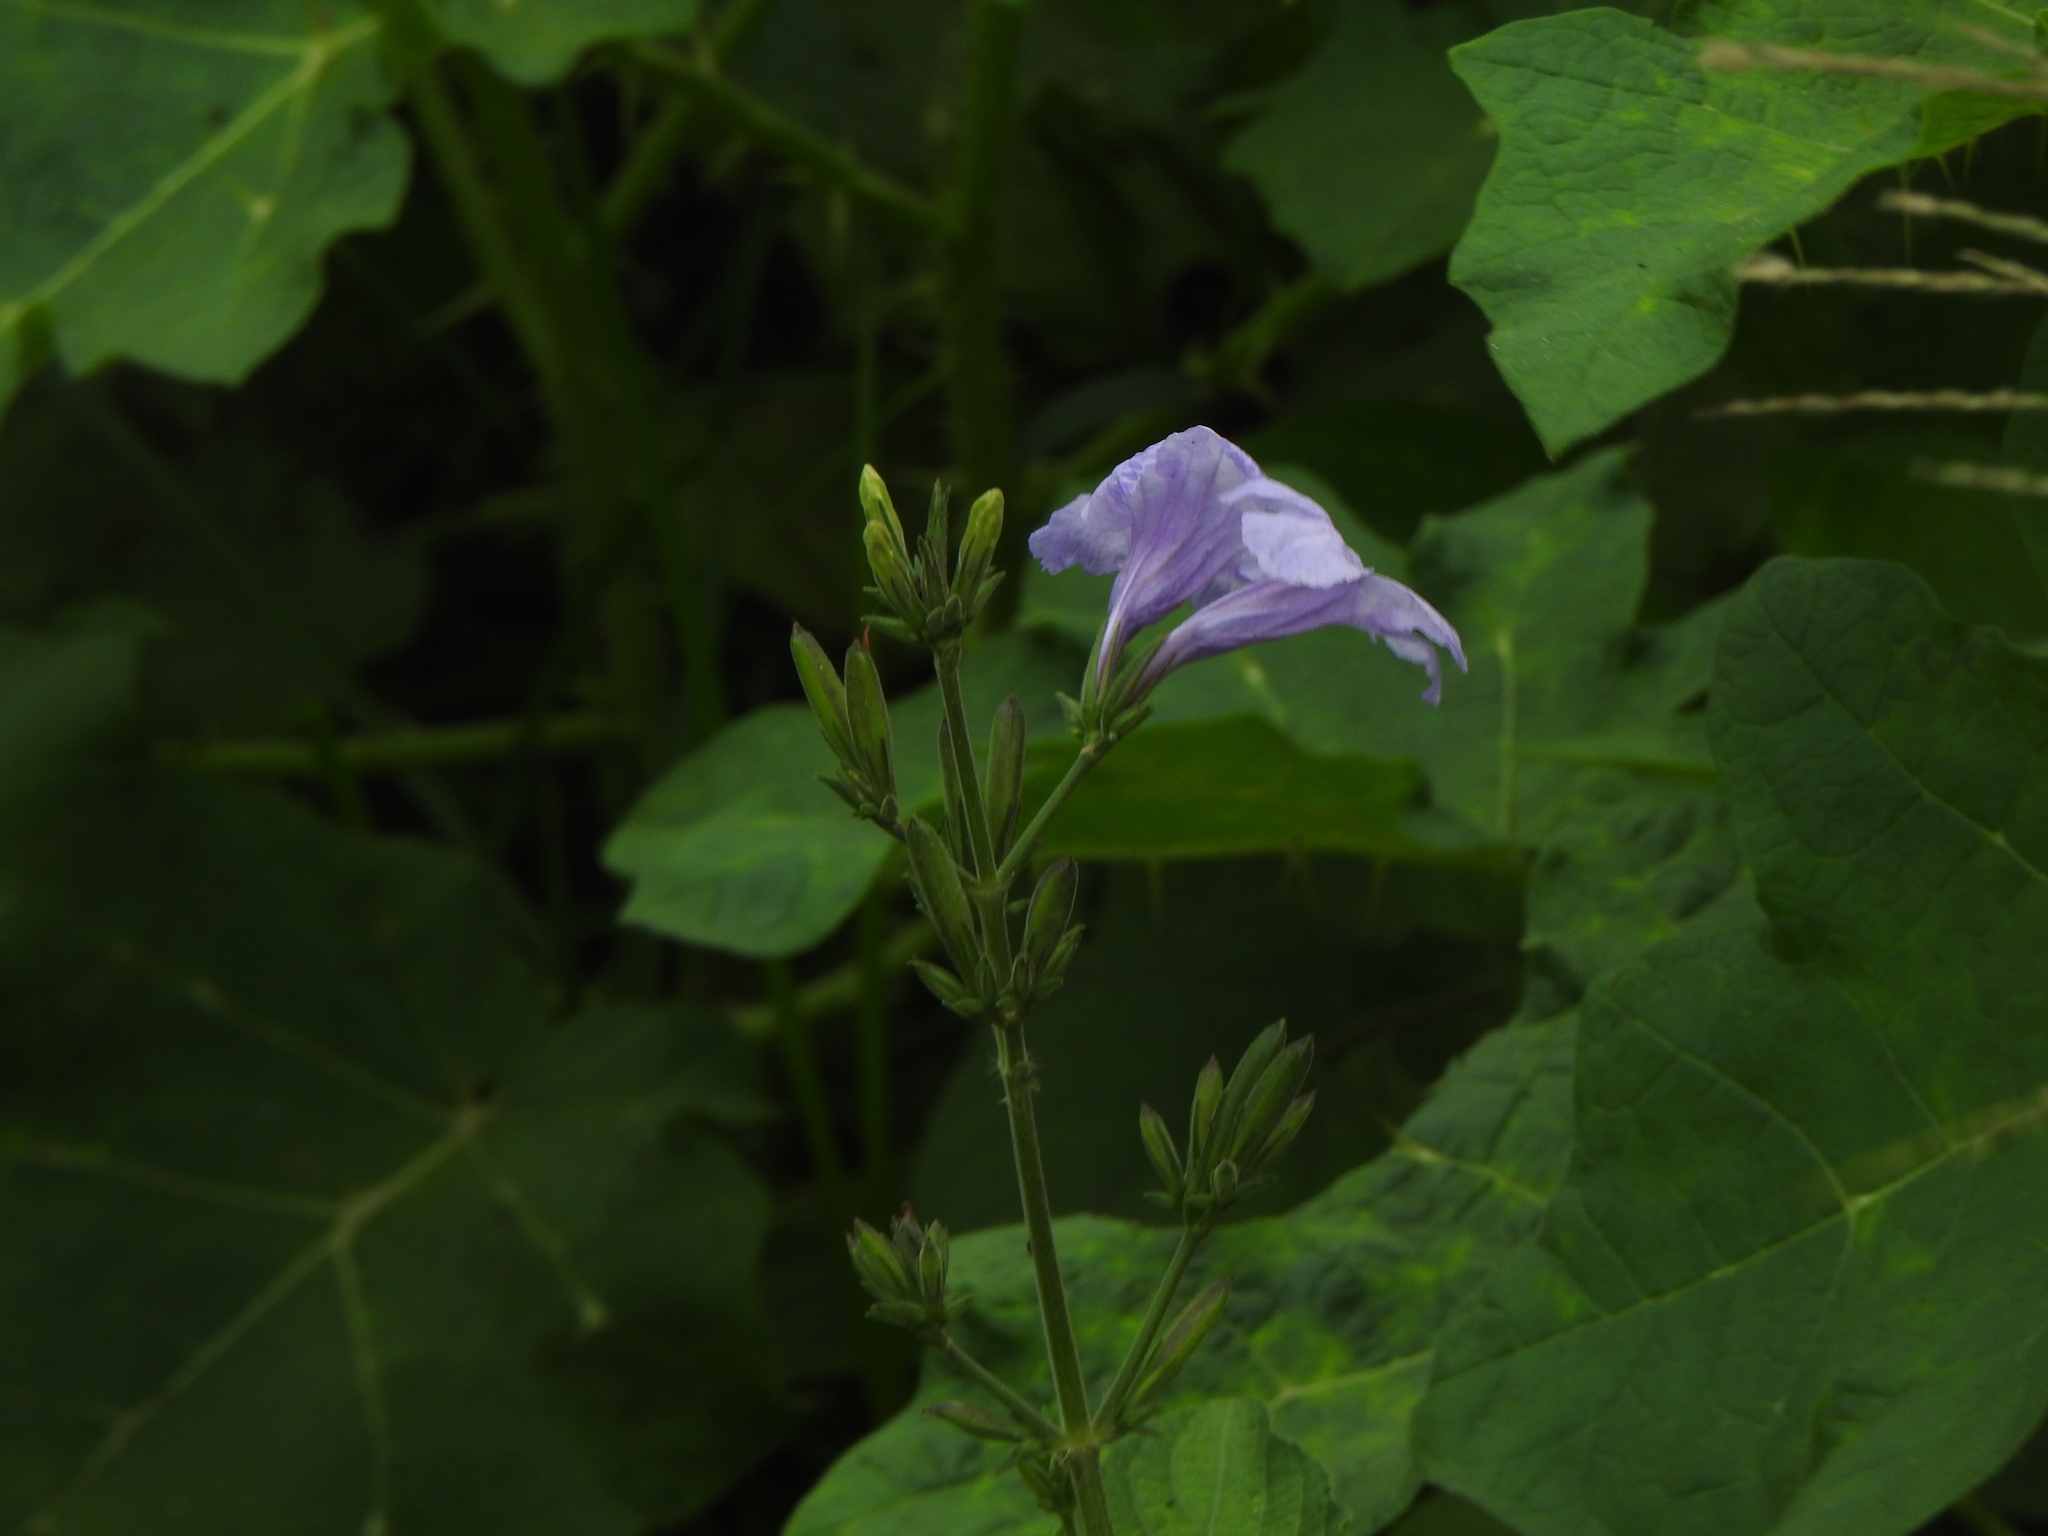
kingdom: Plantae
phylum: Tracheophyta
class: Magnoliopsida
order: Lamiales
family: Acanthaceae
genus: Ruellia
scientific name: Ruellia ciliatiflora
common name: Hairyflower wild petunia
